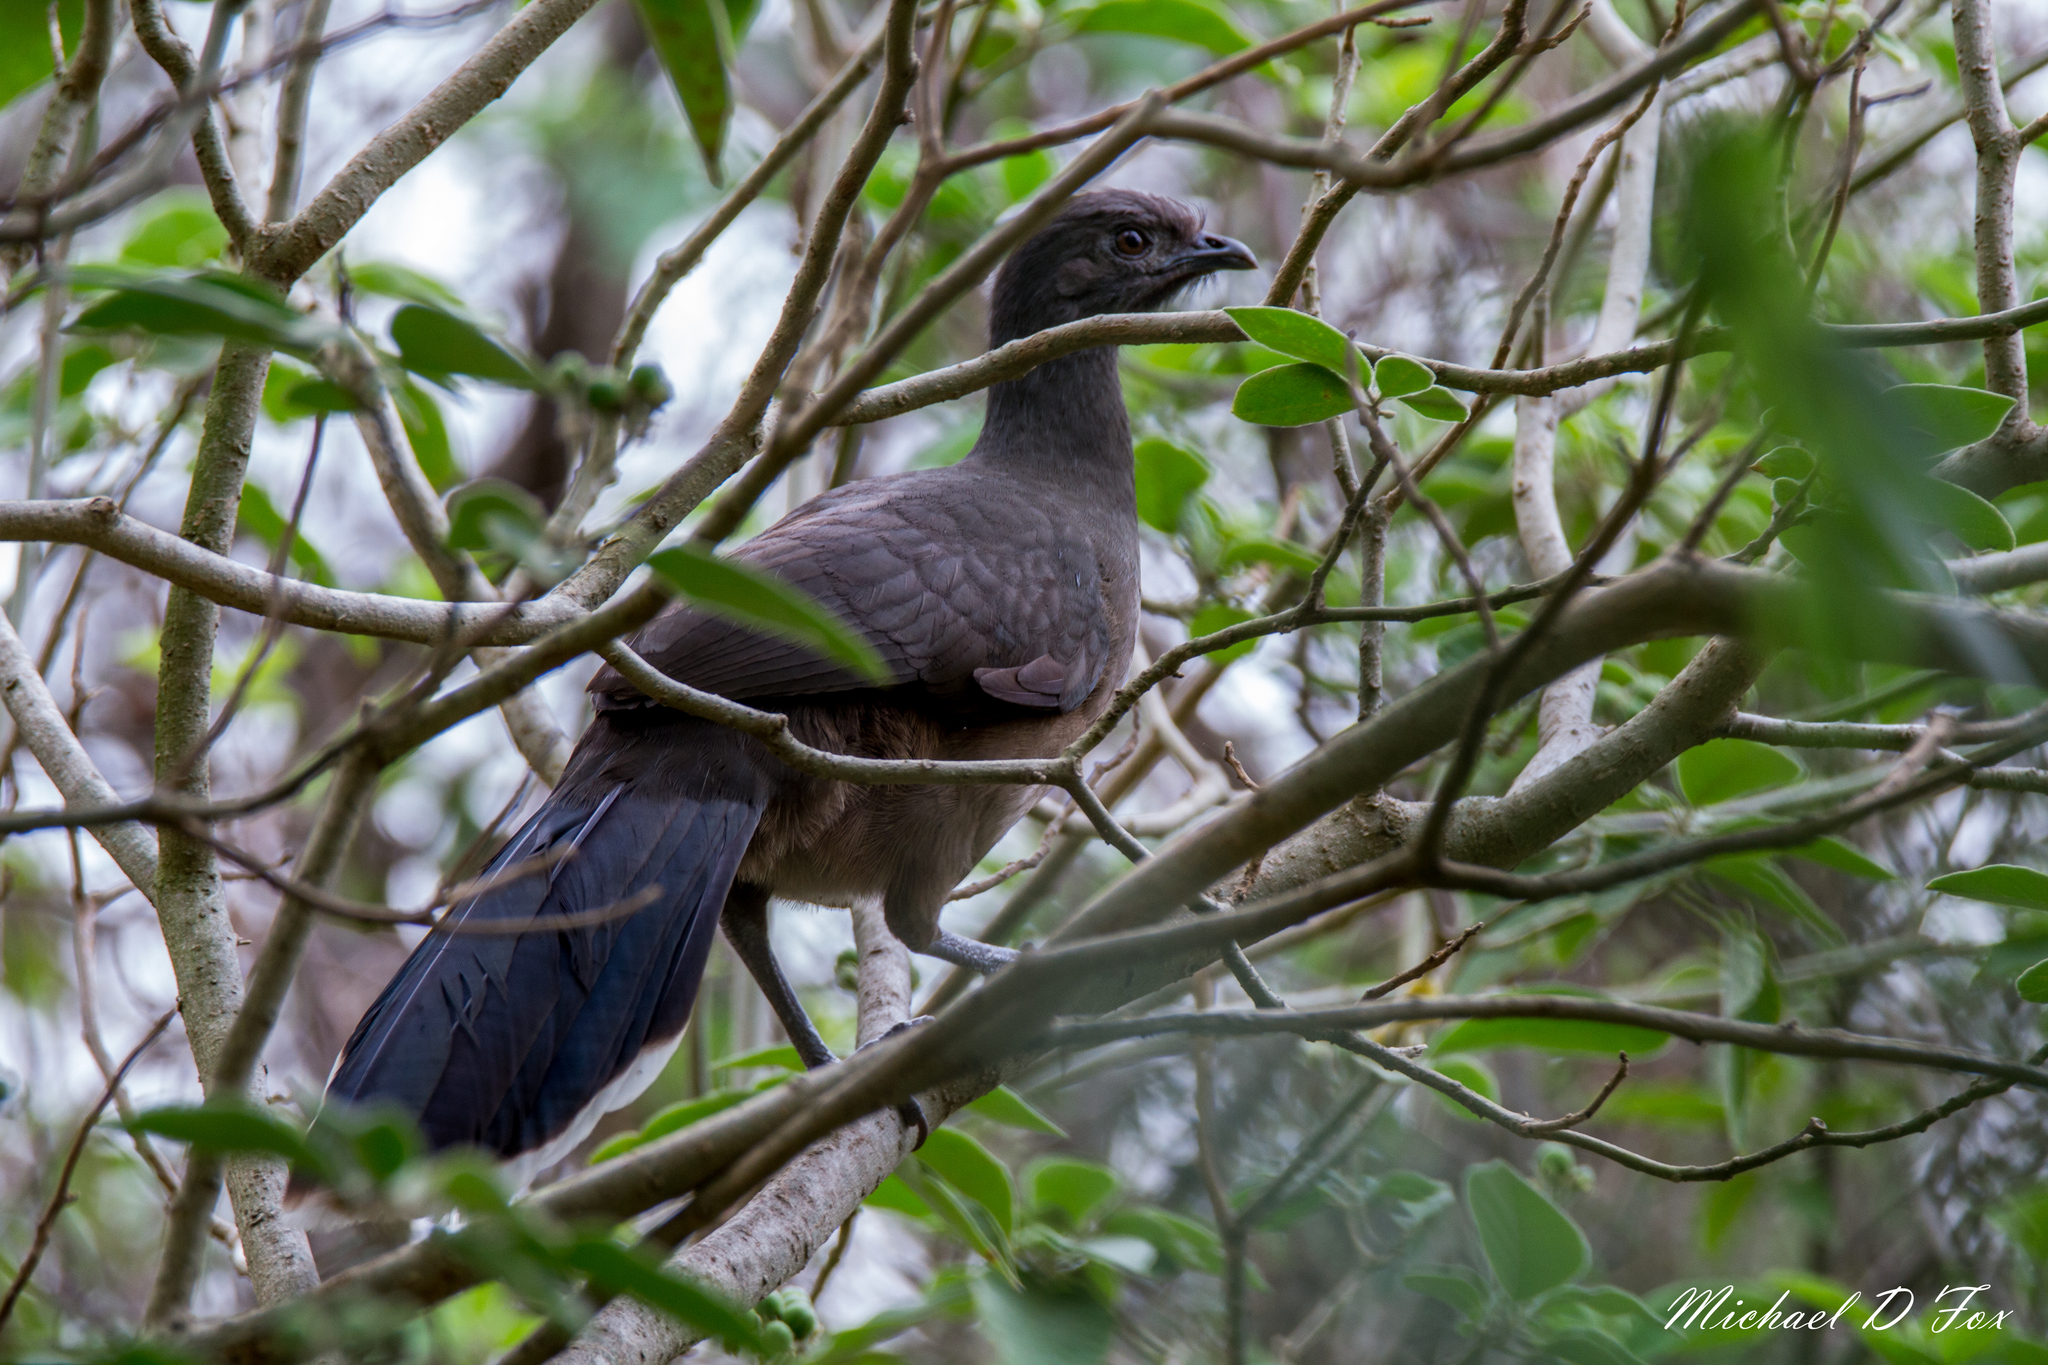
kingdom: Animalia
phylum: Chordata
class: Aves
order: Galliformes
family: Cracidae
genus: Ortalis
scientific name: Ortalis vetula
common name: Plain chachalaca
